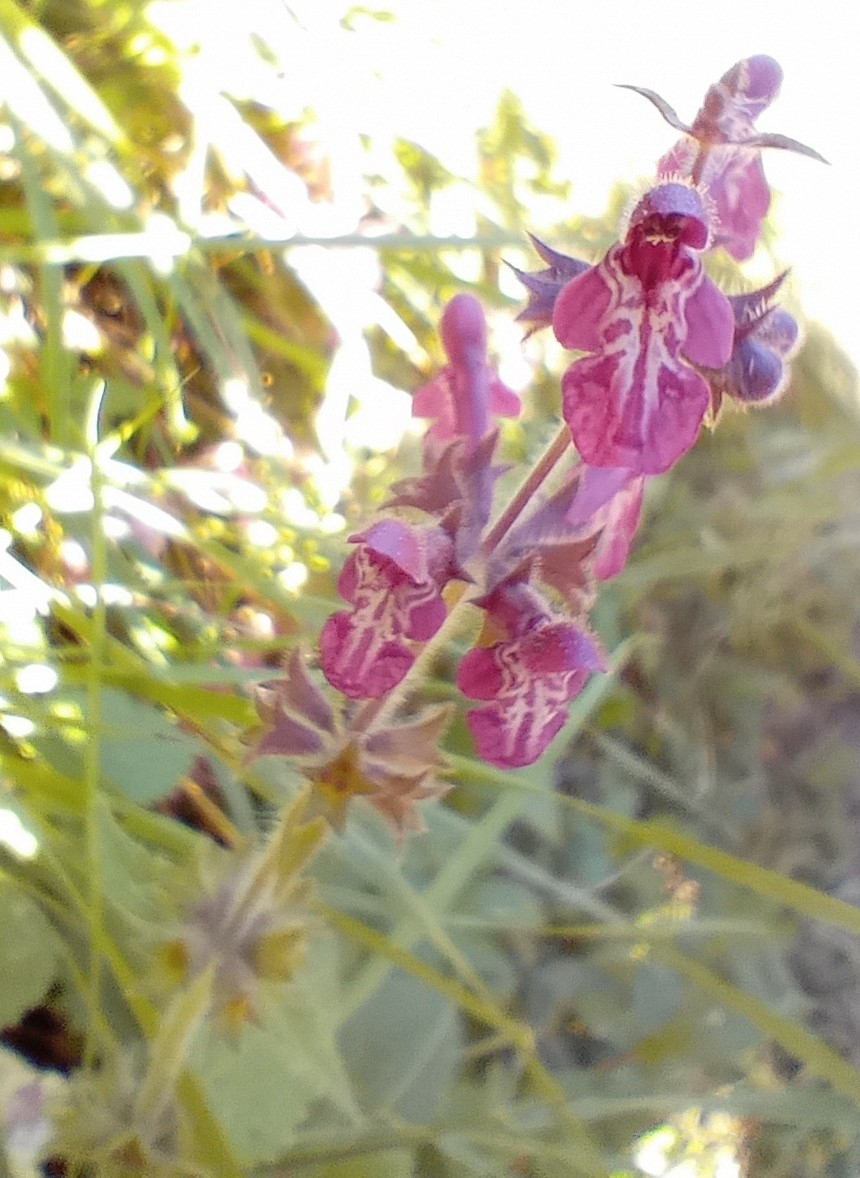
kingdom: Plantae
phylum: Tracheophyta
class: Magnoliopsida
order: Lamiales
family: Lamiaceae
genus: Stachys
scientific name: Stachys sylvatica
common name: Hedge woundwort
